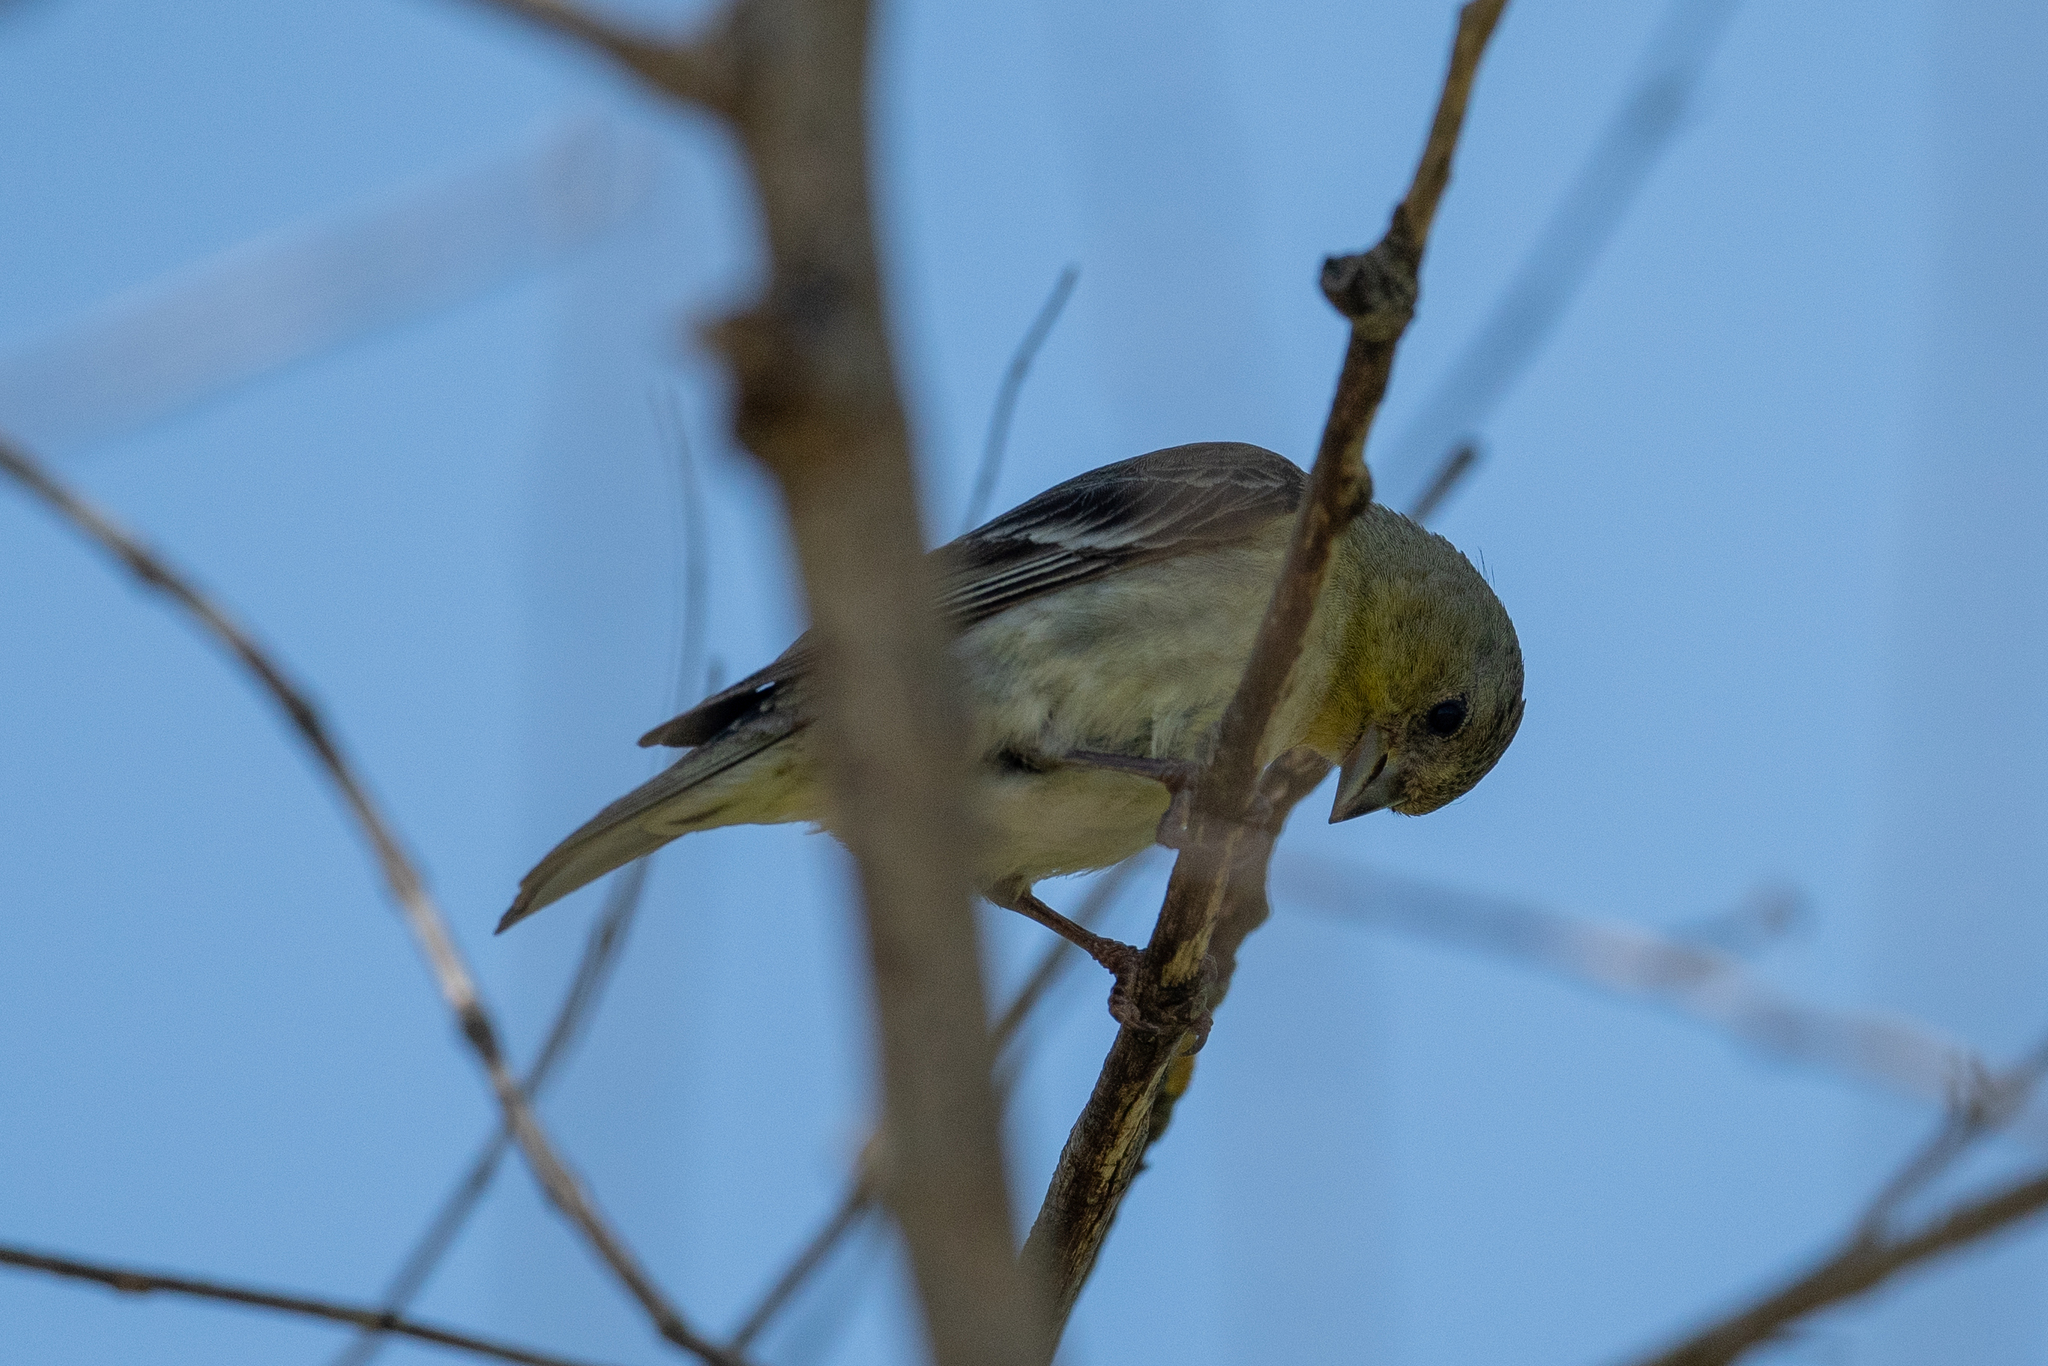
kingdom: Animalia
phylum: Chordata
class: Aves
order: Passeriformes
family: Fringillidae
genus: Spinus
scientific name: Spinus psaltria
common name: Lesser goldfinch
